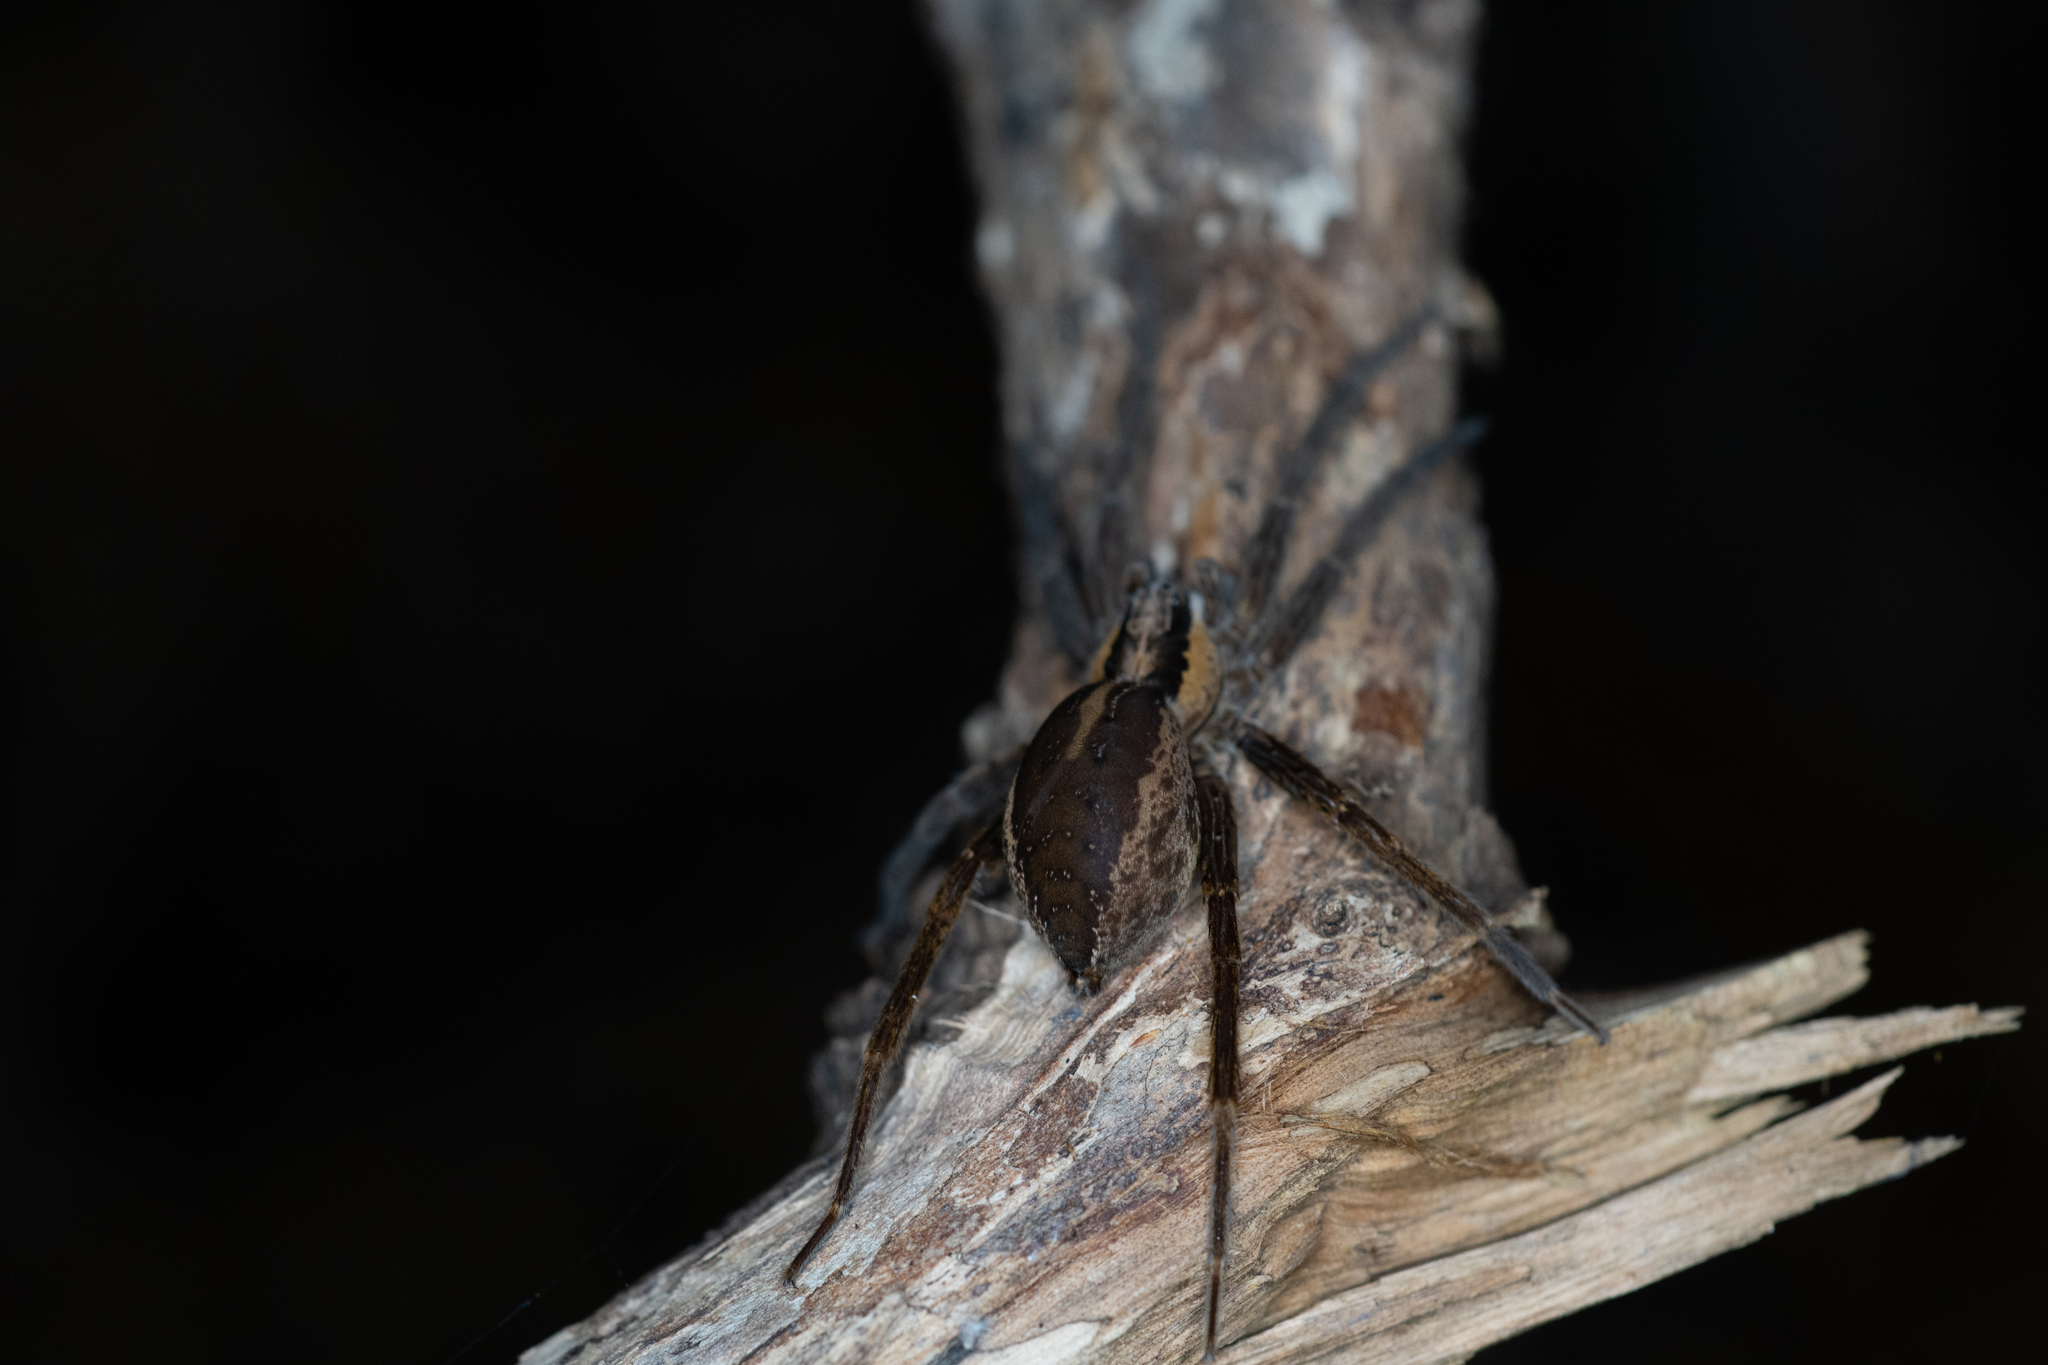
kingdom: Animalia
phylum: Arthropoda
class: Arachnida
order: Araneae
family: Pisauridae
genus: Dolomedes
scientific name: Dolomedes minor
